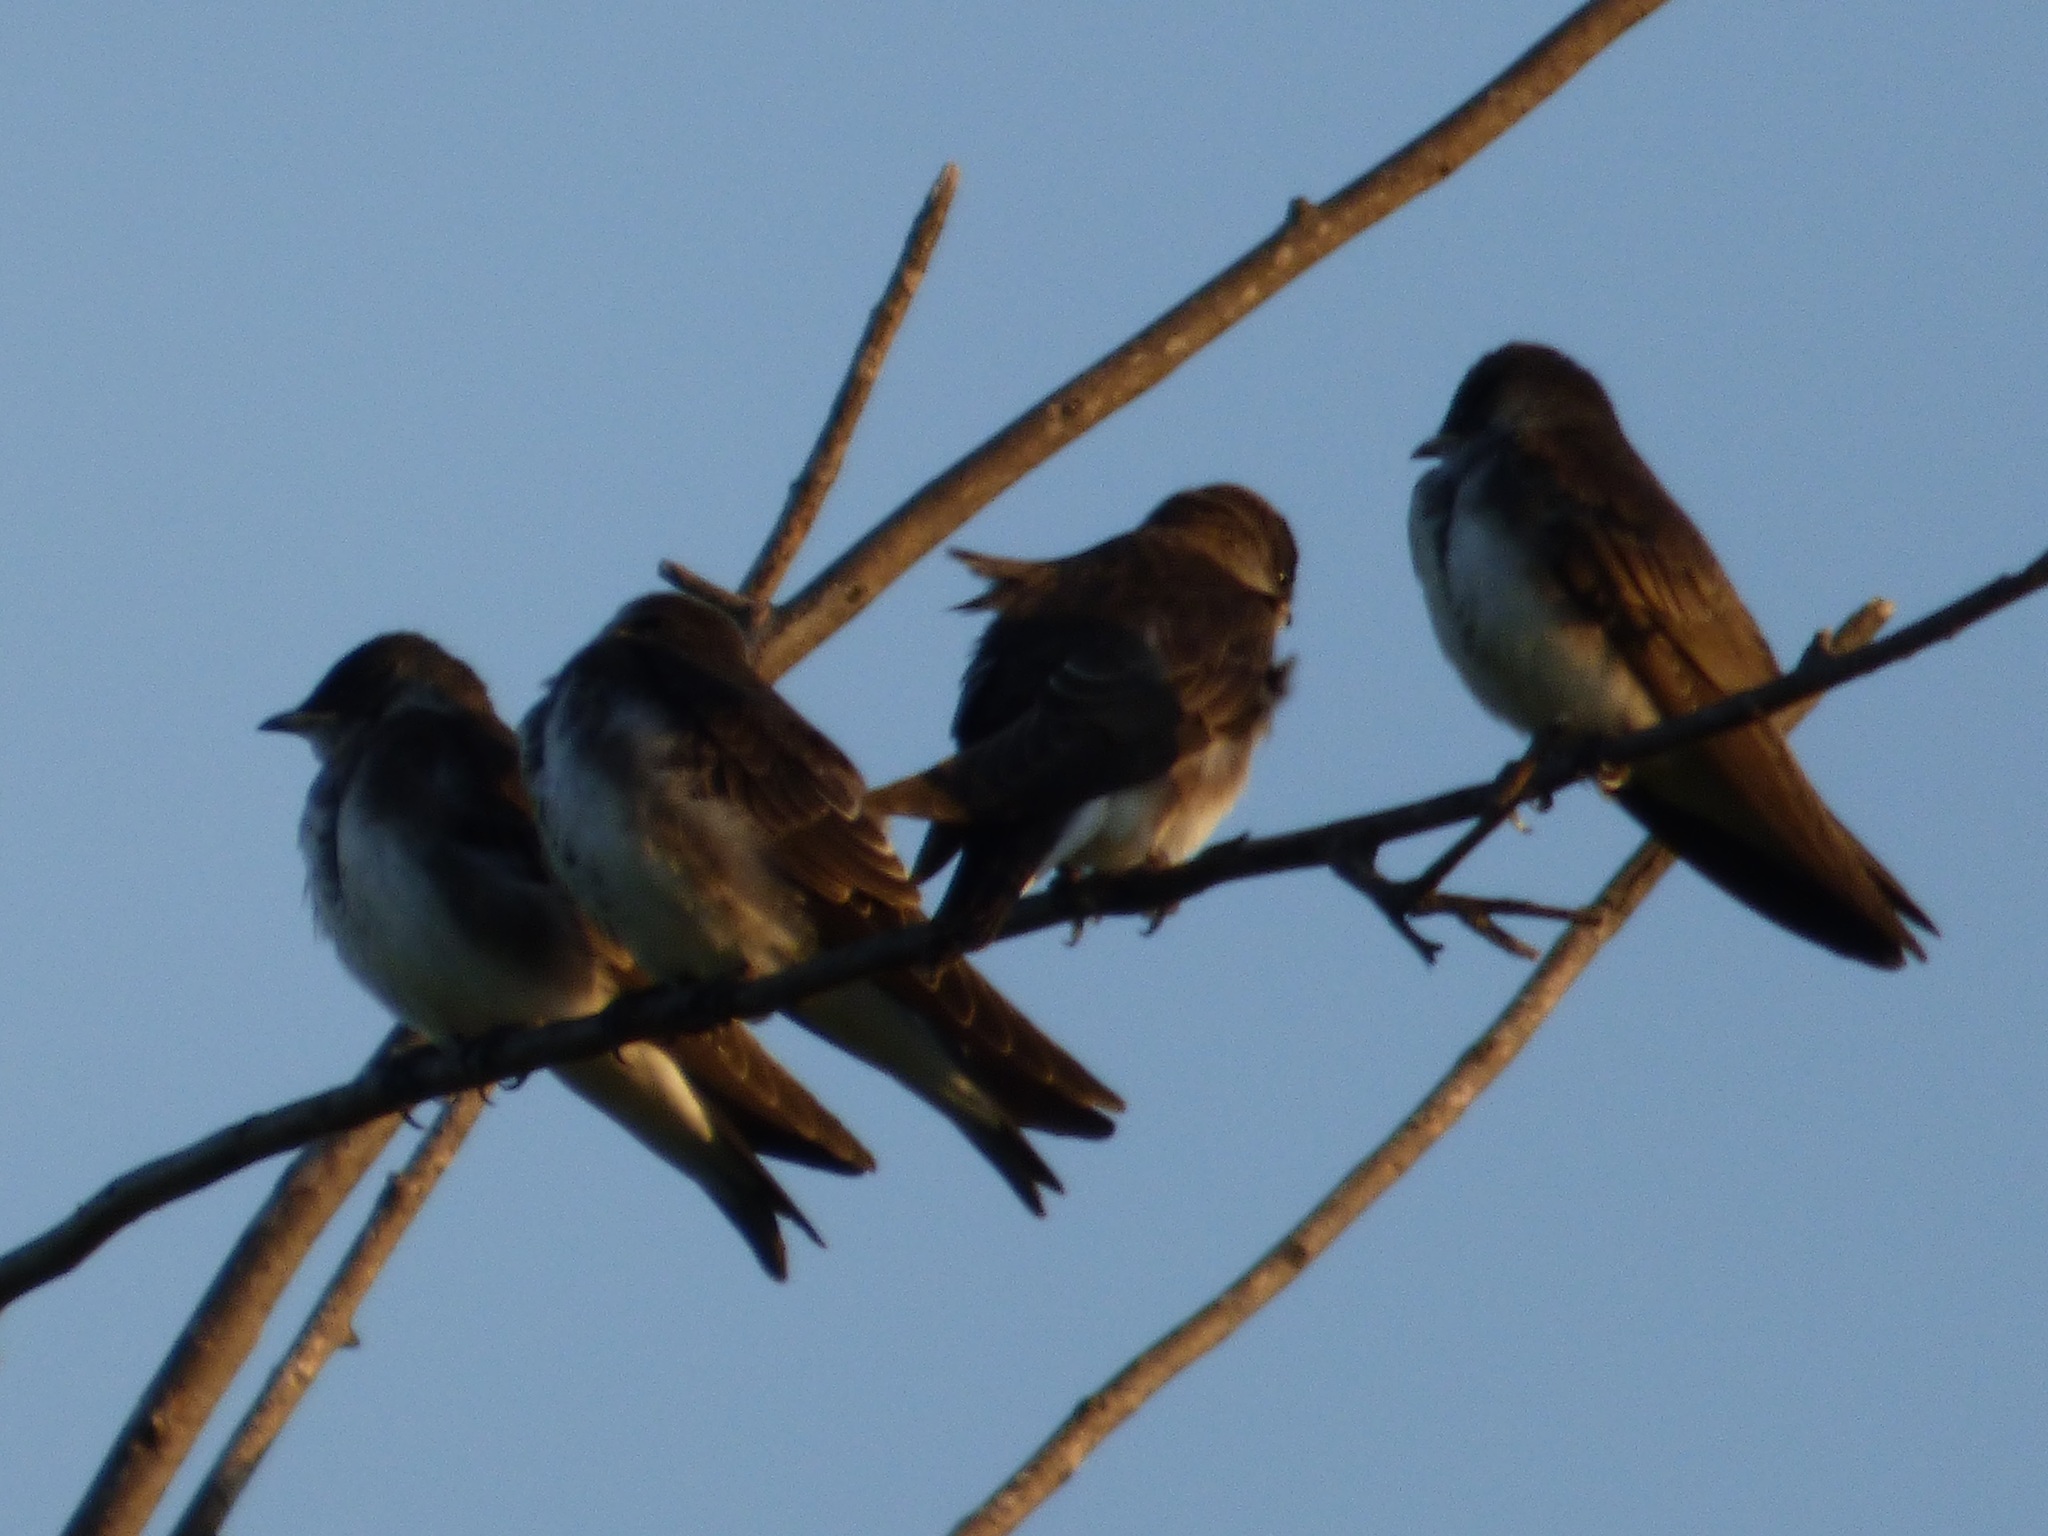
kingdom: Animalia
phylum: Chordata
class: Aves
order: Passeriformes
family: Hirundinidae
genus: Progne
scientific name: Progne tapera
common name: Brown-chested martin
